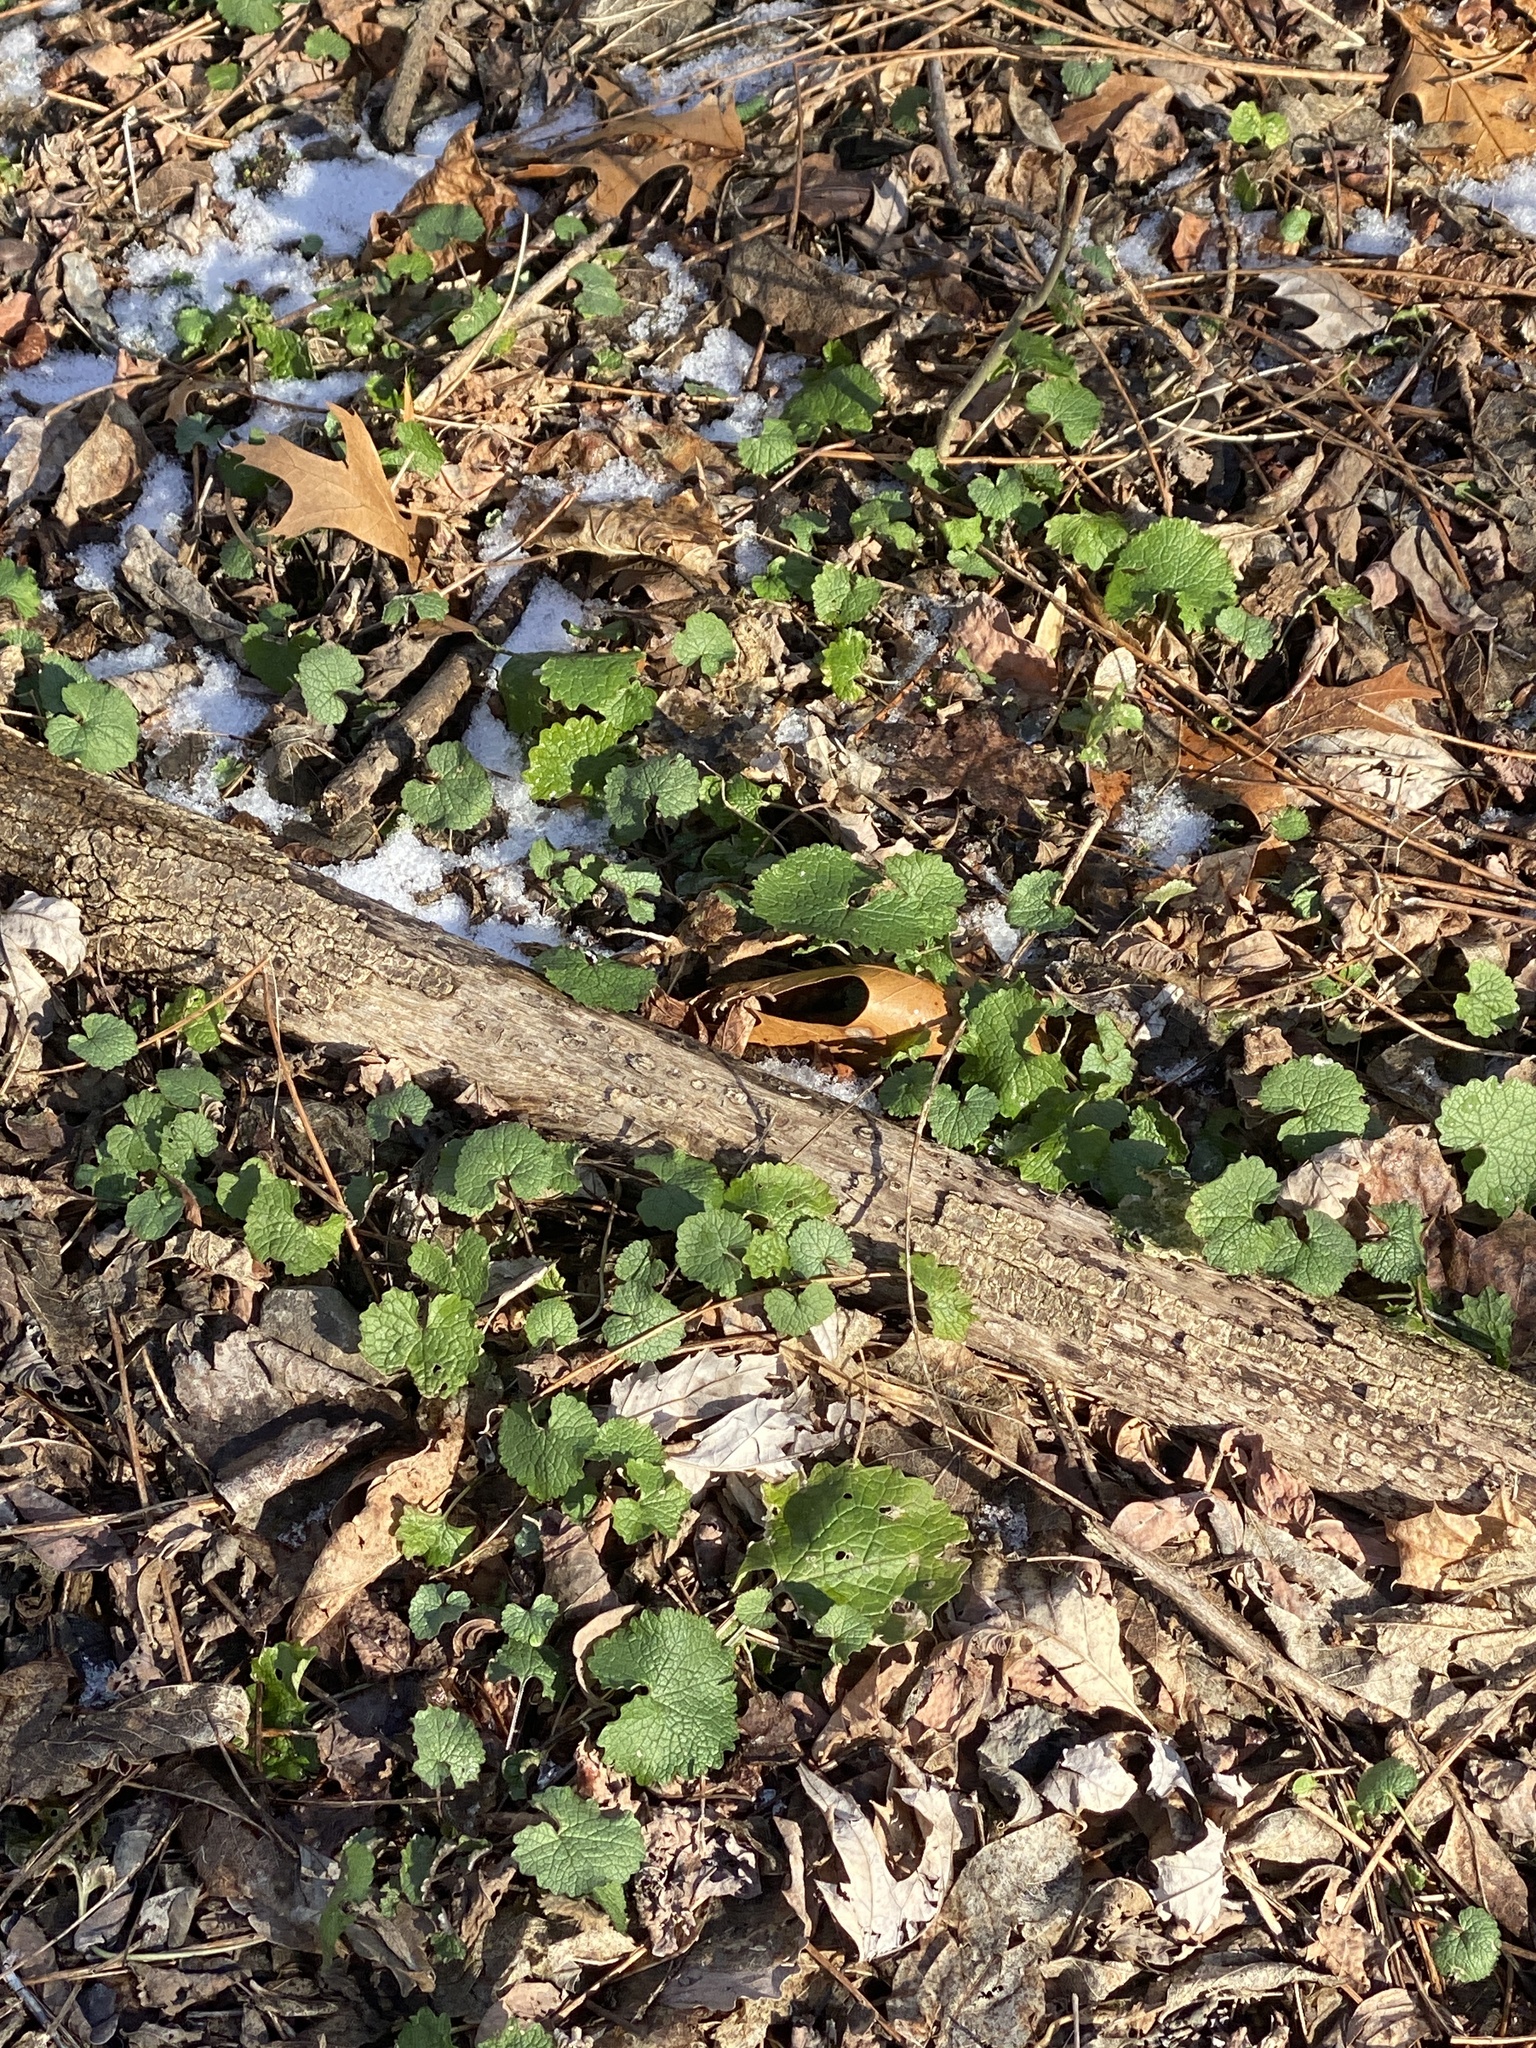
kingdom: Plantae
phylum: Tracheophyta
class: Magnoliopsida
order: Brassicales
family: Brassicaceae
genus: Alliaria
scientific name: Alliaria petiolata
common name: Garlic mustard
